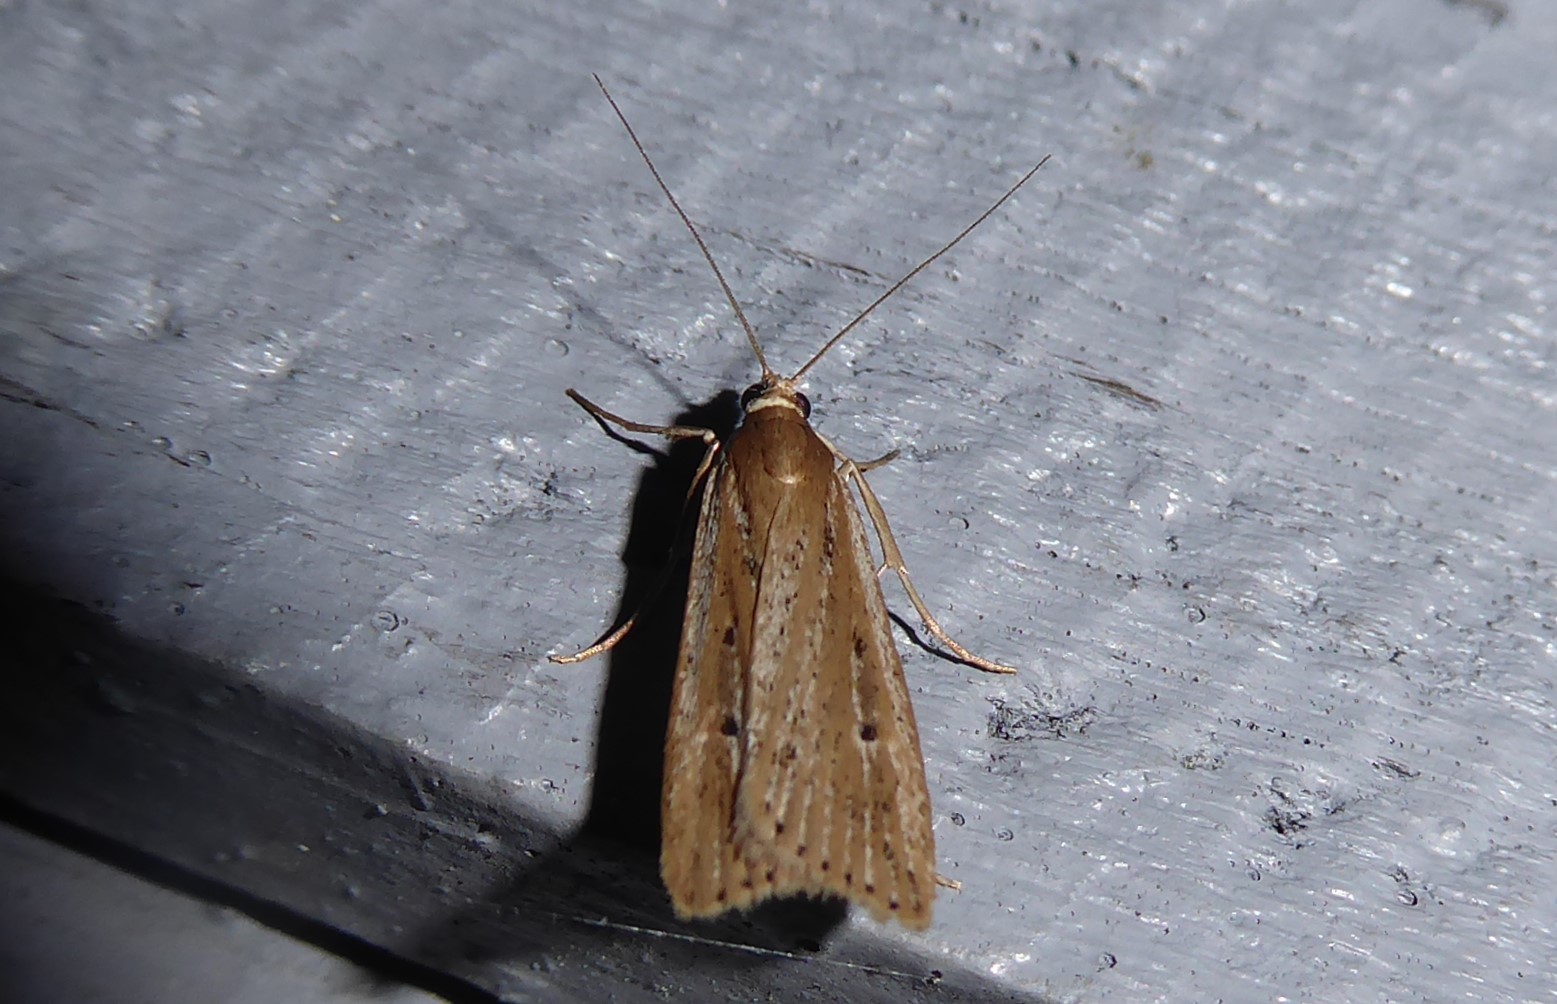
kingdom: Animalia
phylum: Arthropoda
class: Insecta
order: Lepidoptera
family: Crambidae
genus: Eudonia
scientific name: Eudonia sabulosella
